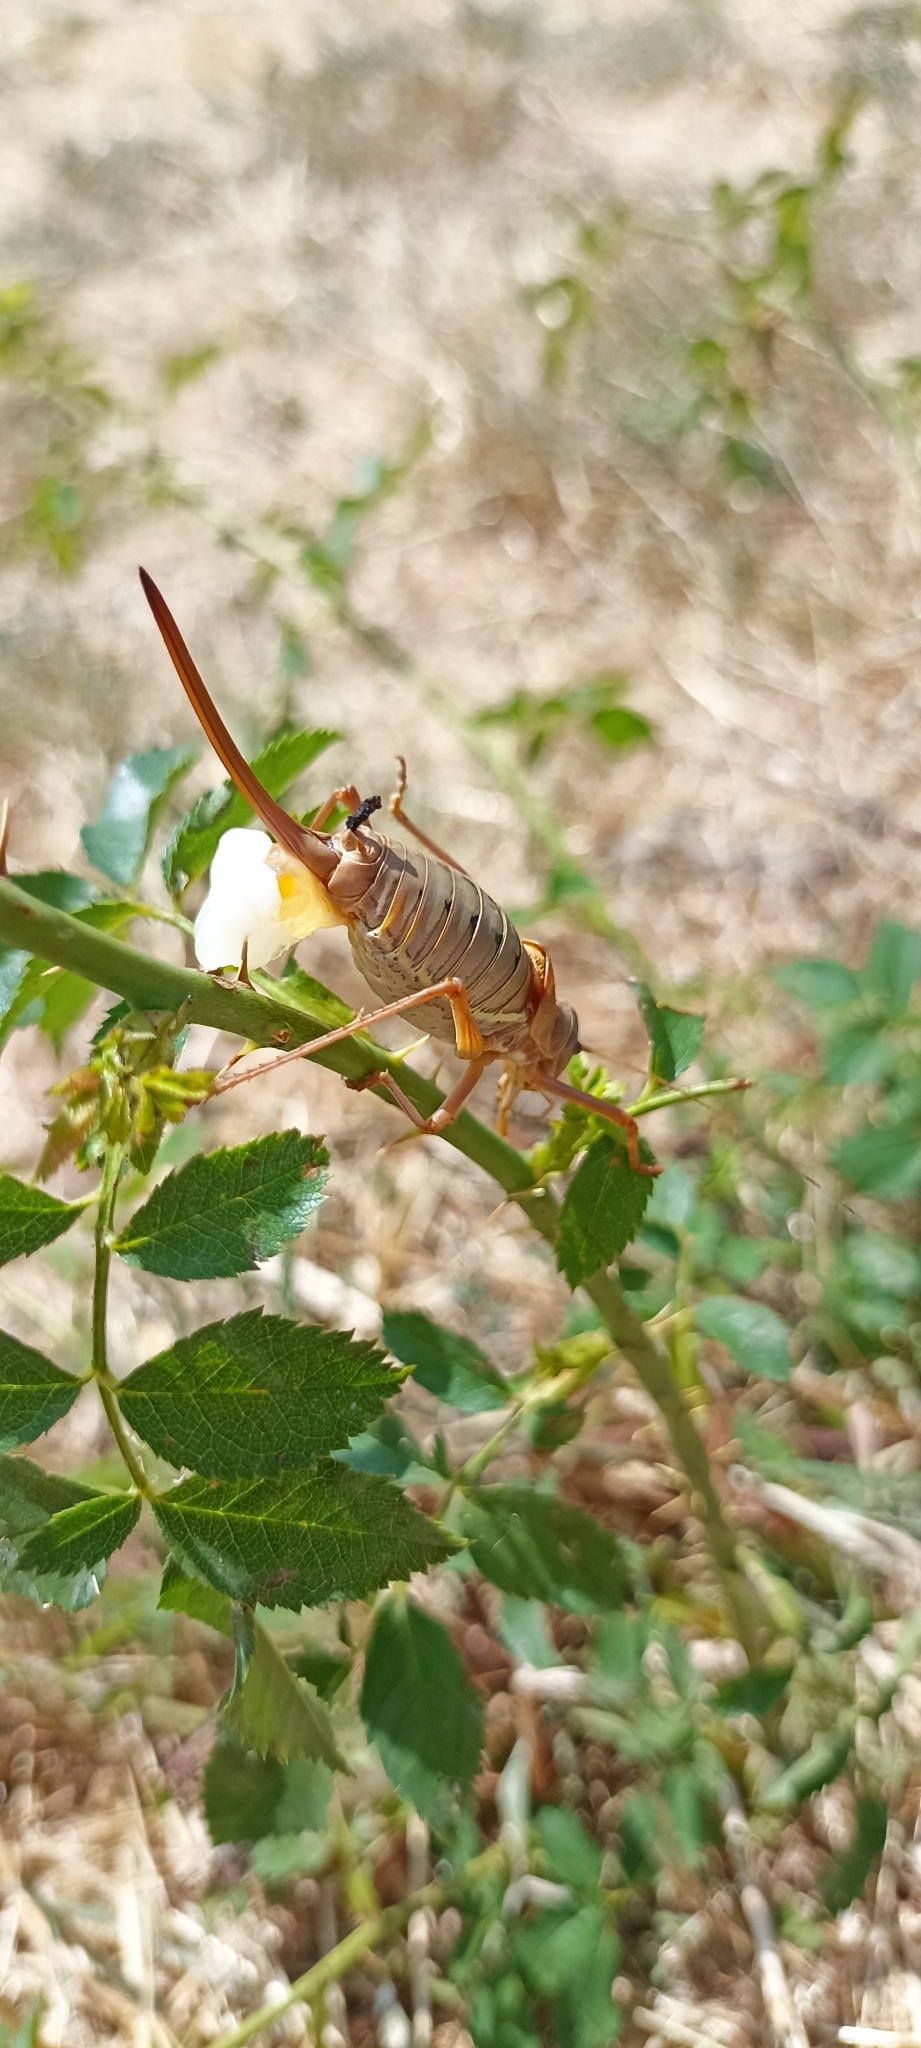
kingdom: Animalia
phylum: Arthropoda
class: Insecta
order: Orthoptera
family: Tettigoniidae
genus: Ephippiger
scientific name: Ephippiger terrestris
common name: Alpine saddle-backed bush-cricket
